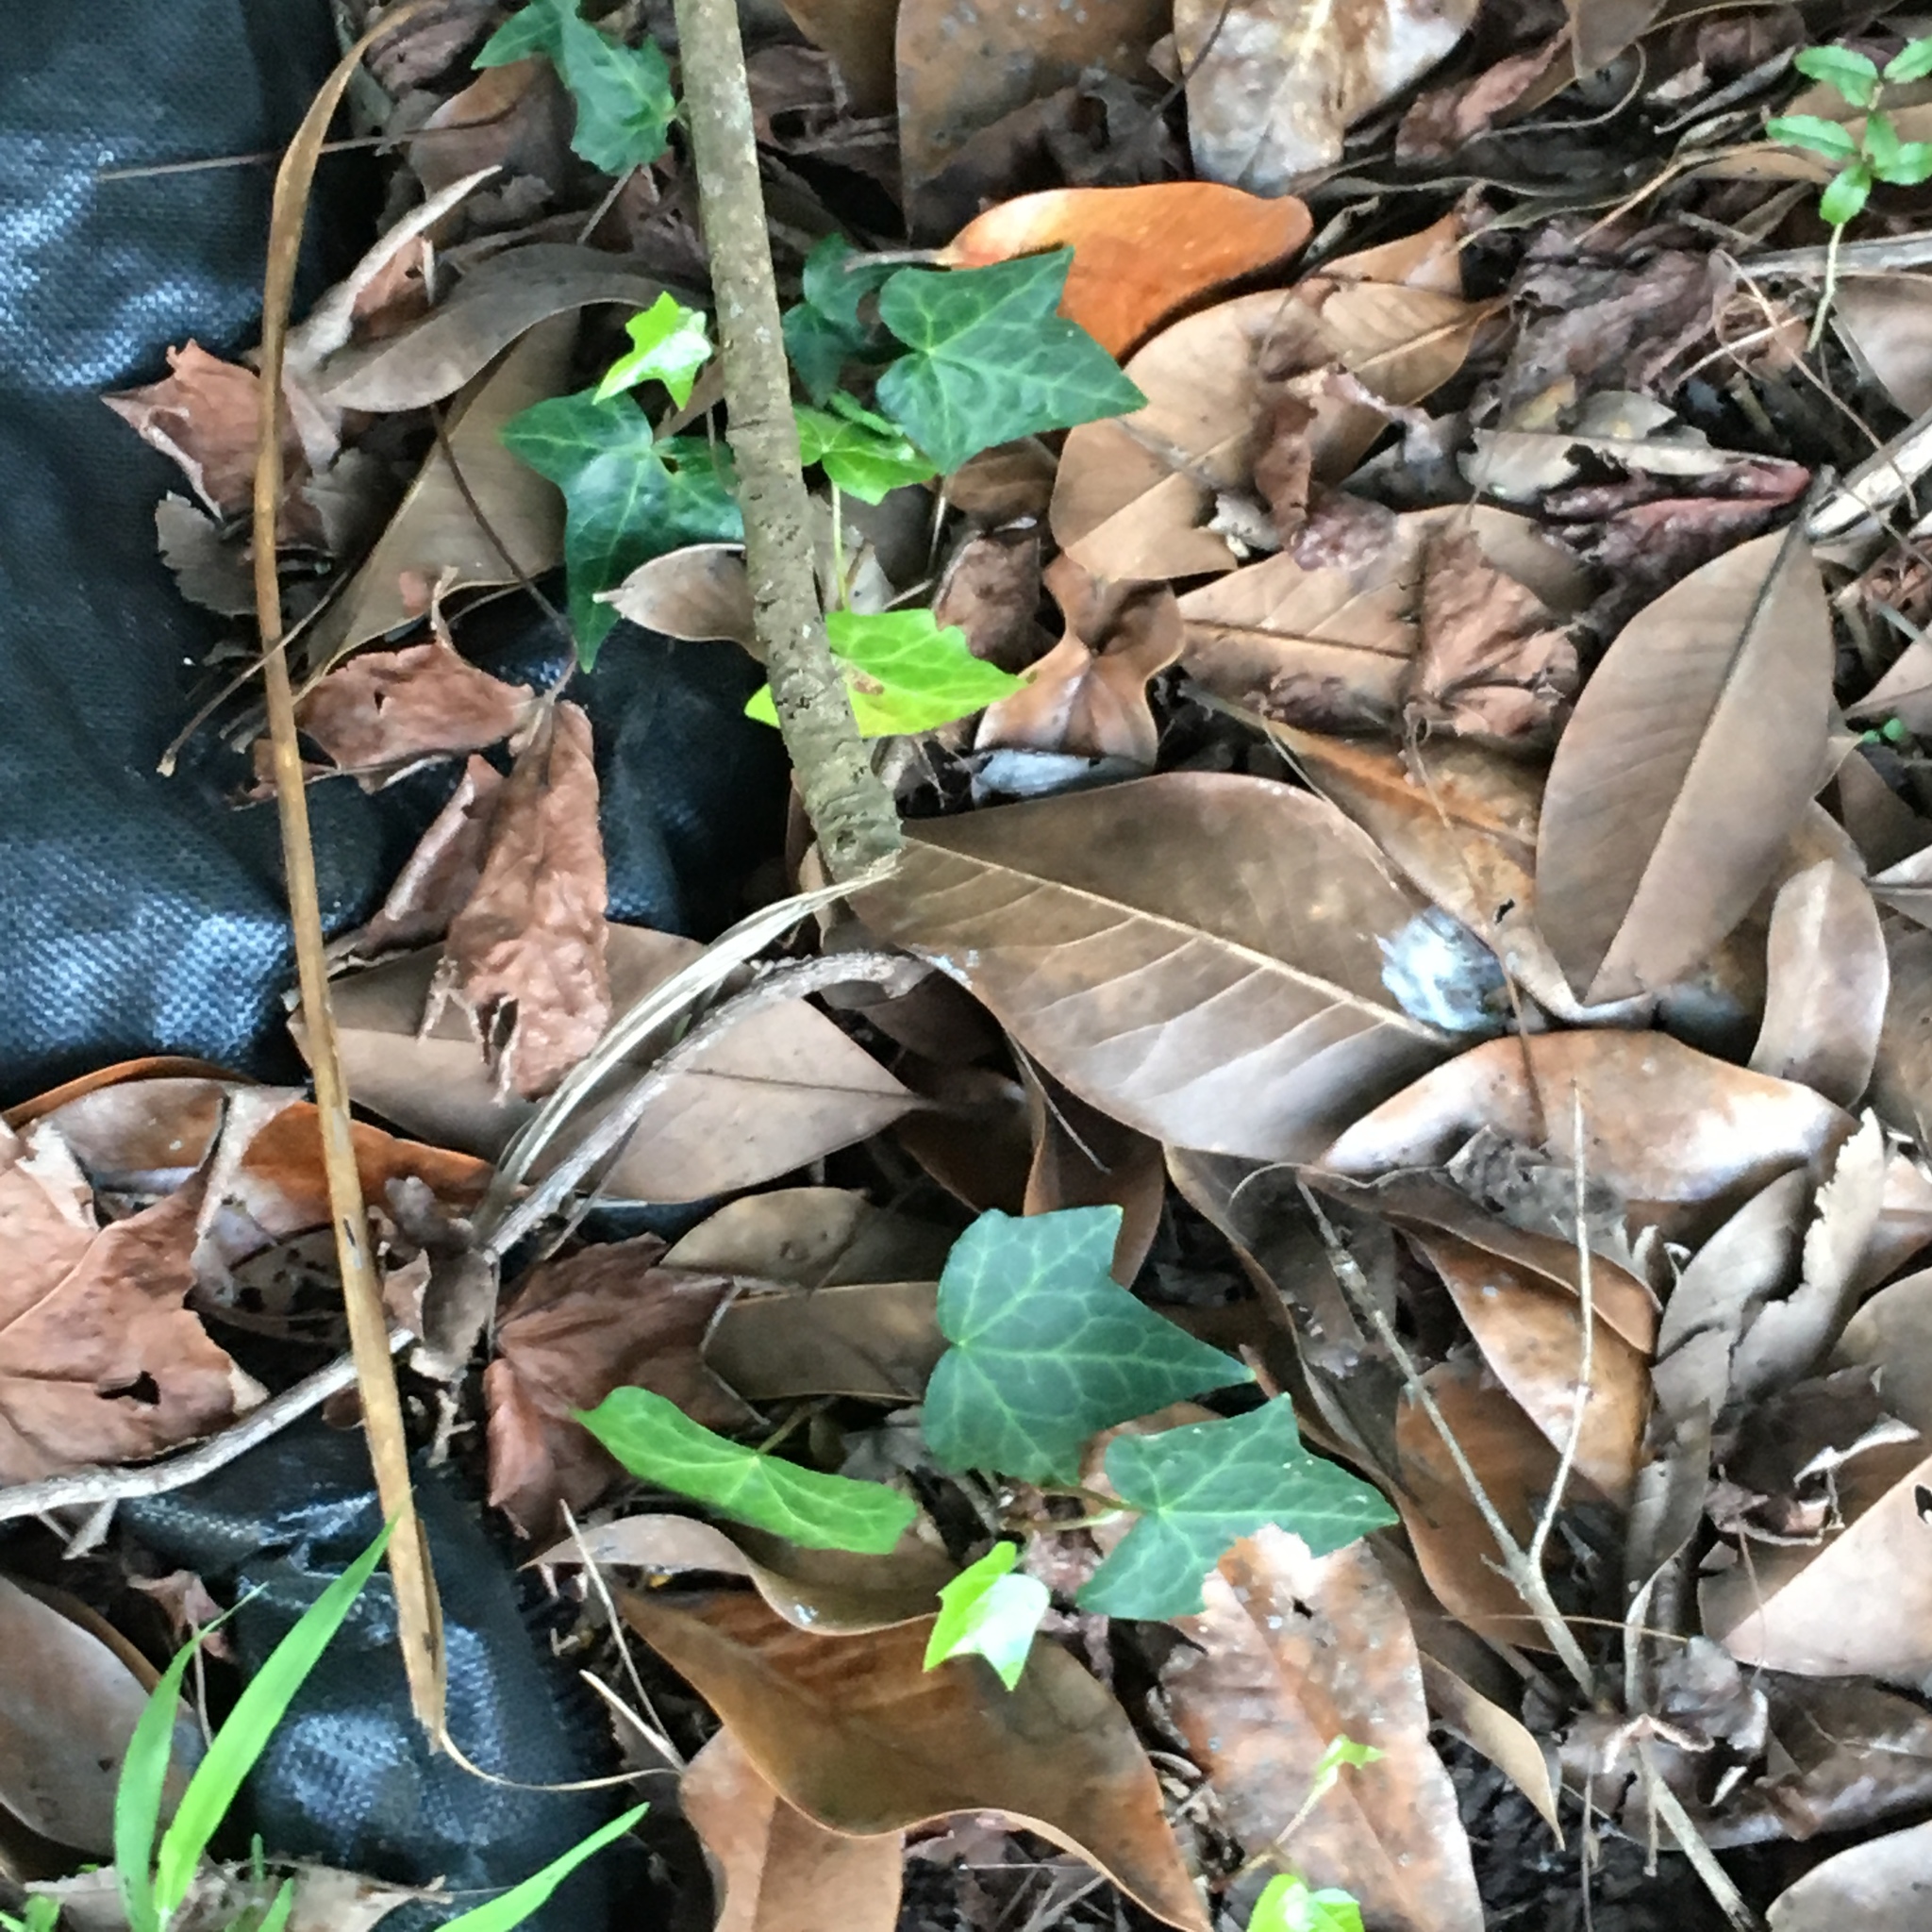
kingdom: Plantae
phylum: Tracheophyta
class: Magnoliopsida
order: Apiales
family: Araliaceae
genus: Hedera
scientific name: Hedera helix
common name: Ivy
